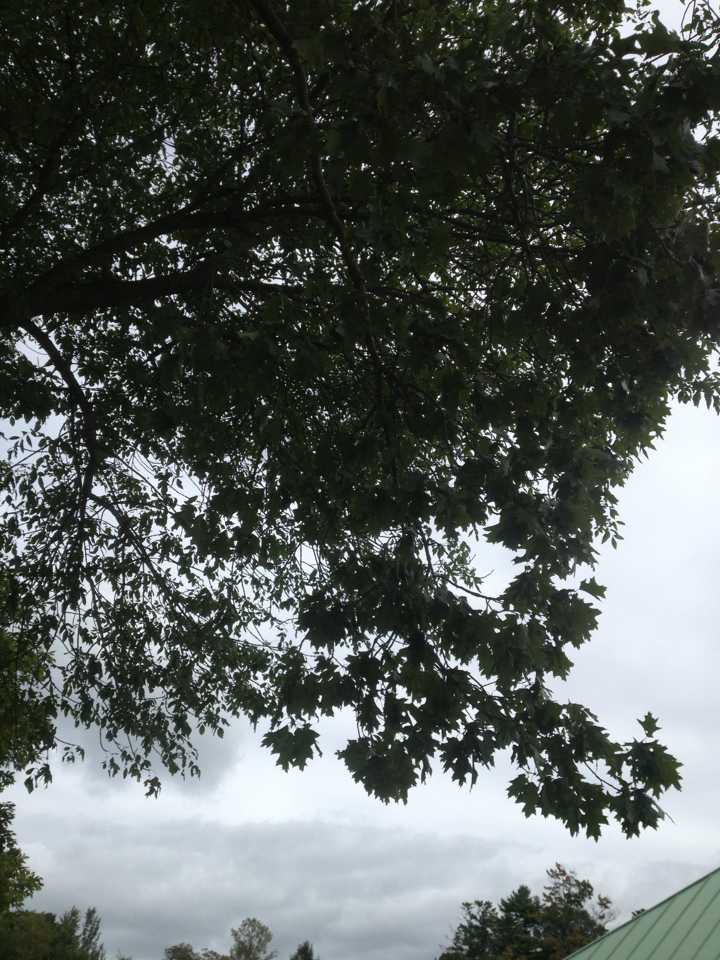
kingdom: Plantae
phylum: Tracheophyta
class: Magnoliopsida
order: Fagales
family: Fagaceae
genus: Quercus
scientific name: Quercus rubra
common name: Red oak
